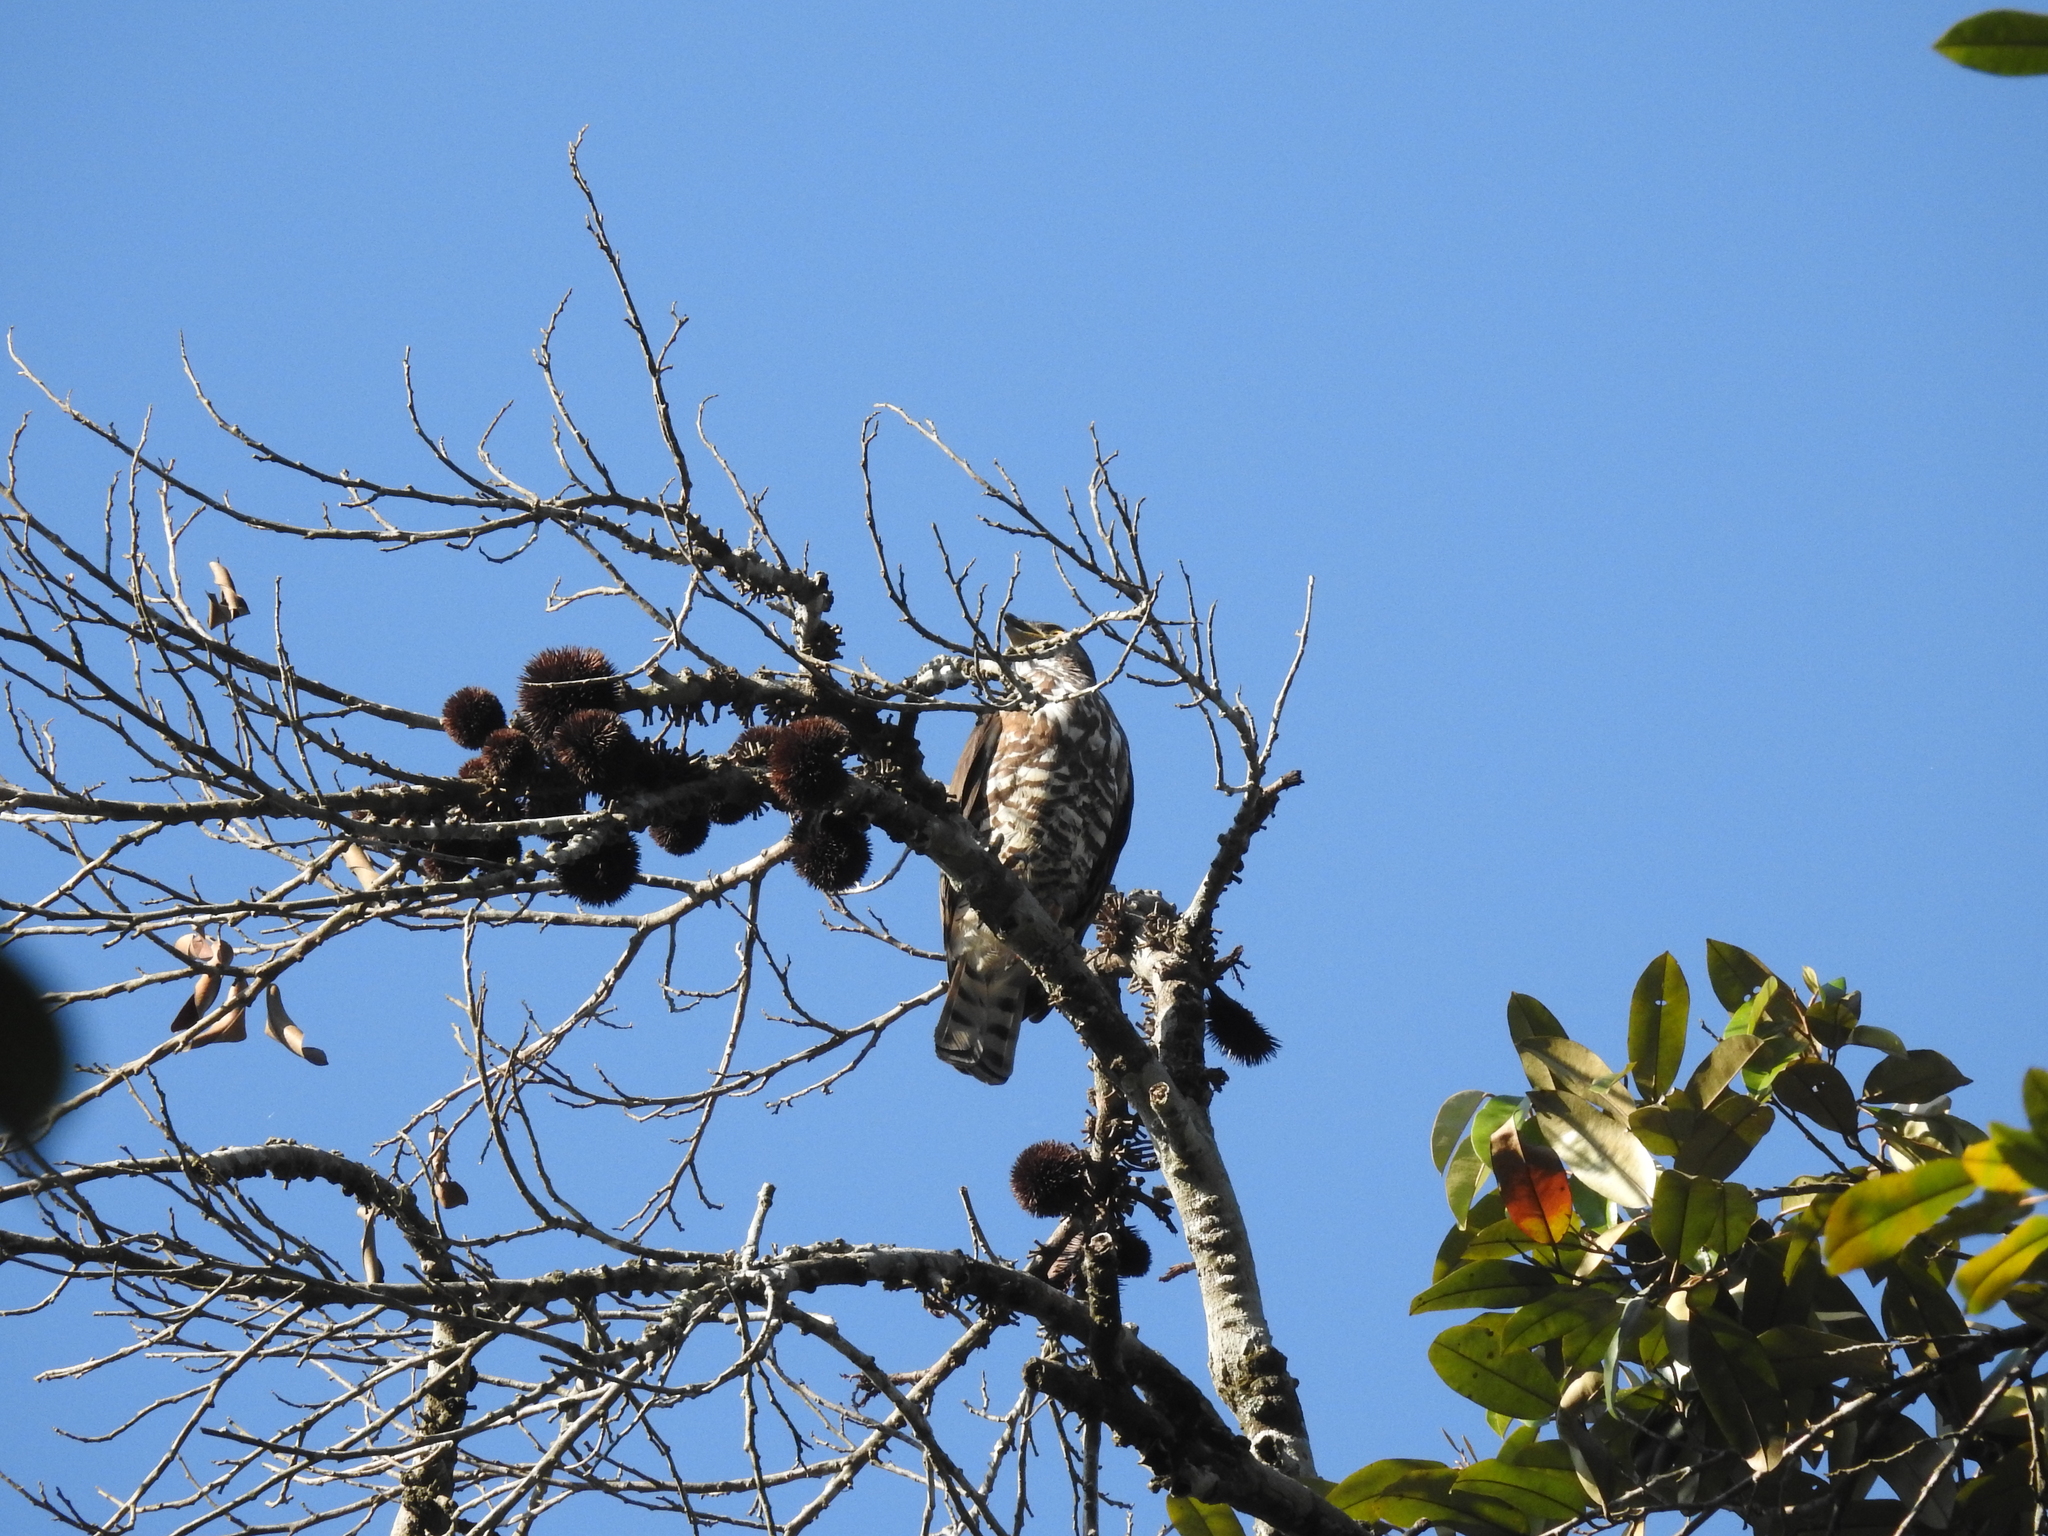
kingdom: Animalia
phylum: Chordata
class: Aves
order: Accipitriformes
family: Accipitridae
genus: Accipiter
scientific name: Accipiter trivirgatus
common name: Crested goshawk
